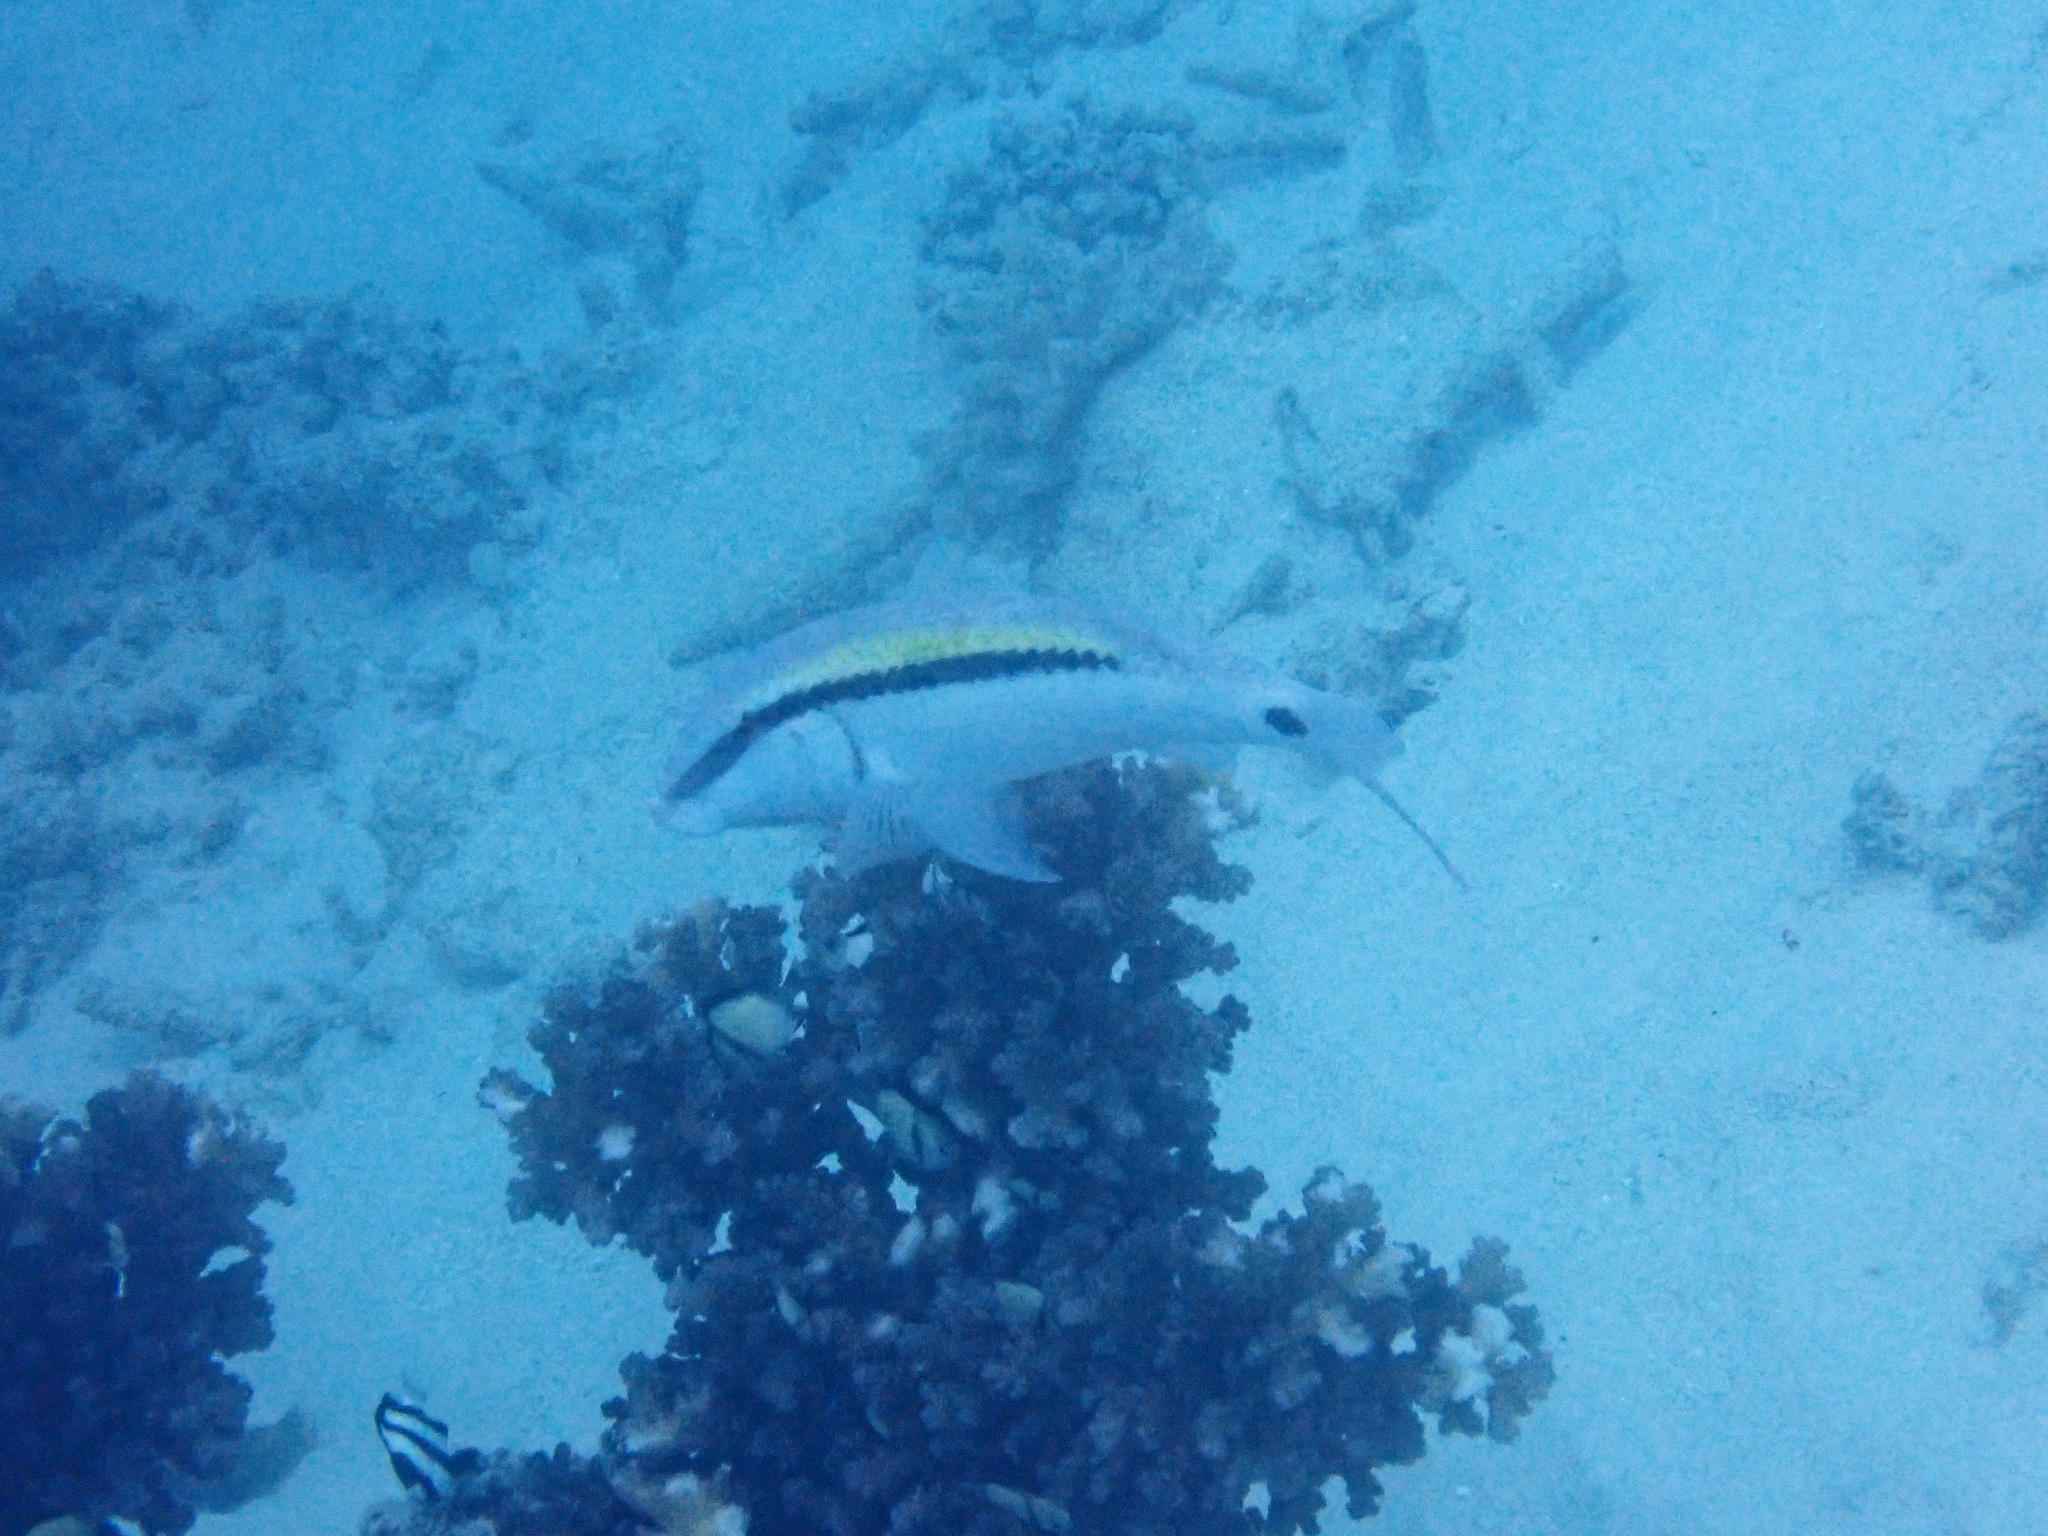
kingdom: Animalia
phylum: Chordata
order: Perciformes
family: Mullidae
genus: Parupeneus
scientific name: Parupeneus barberinus
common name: Dash-and-dot goatfish
